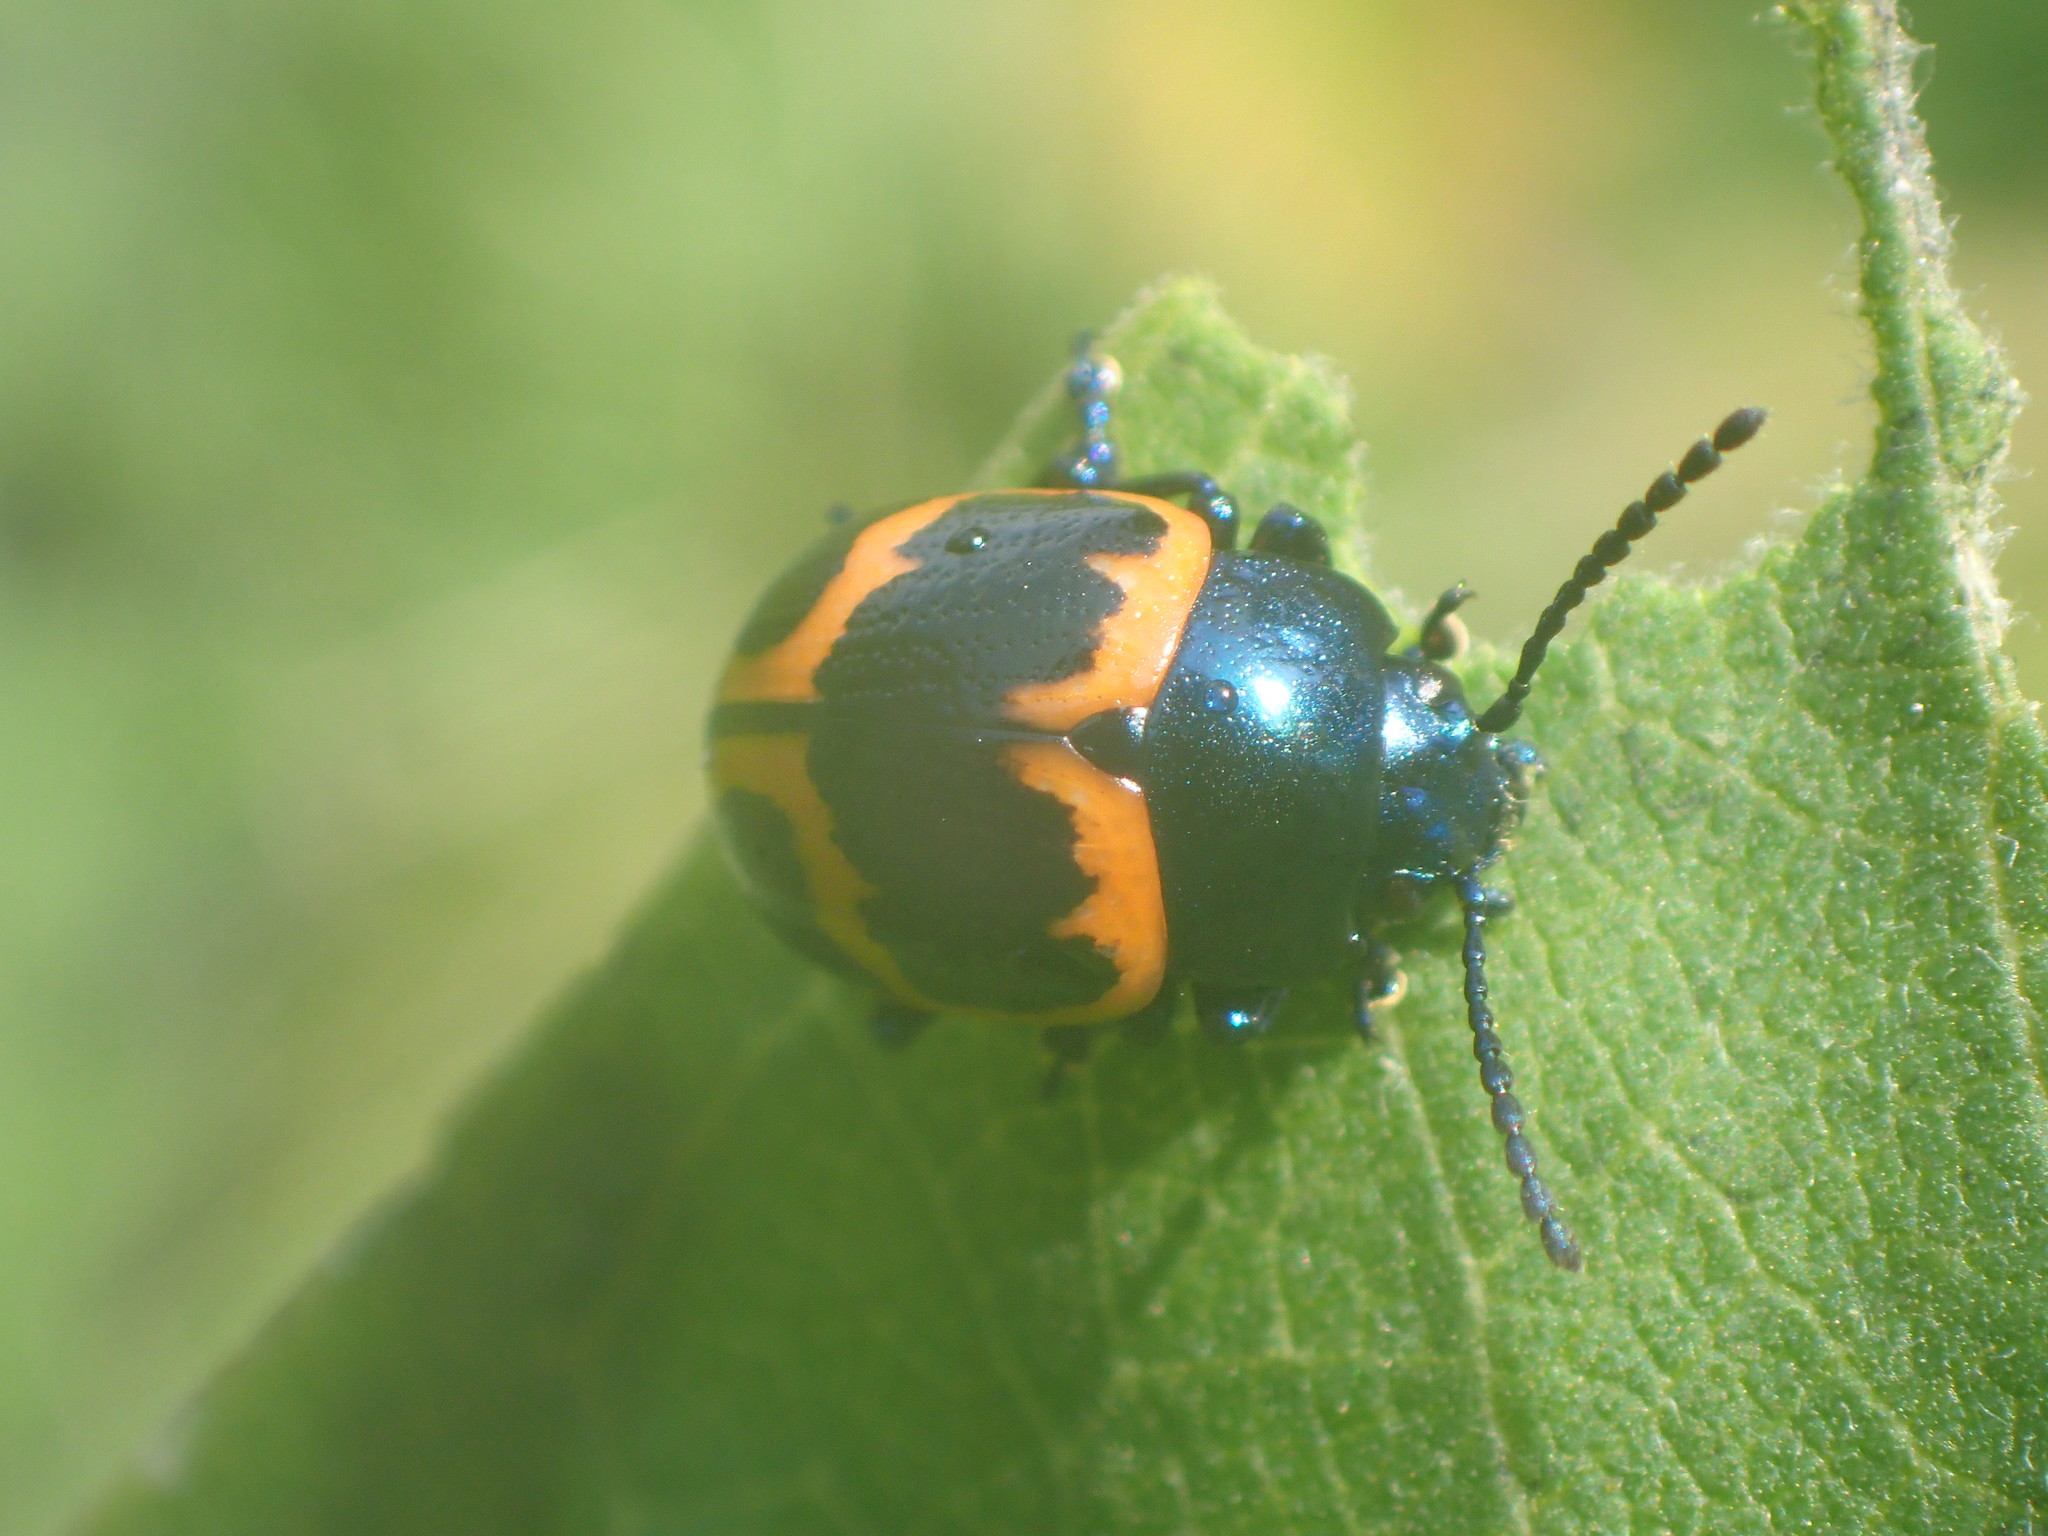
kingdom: Animalia
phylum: Arthropoda
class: Insecta
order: Coleoptera
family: Chrysomelidae
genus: Labidomera
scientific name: Labidomera clivicollis
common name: Swamp milkweed leaf beetle
